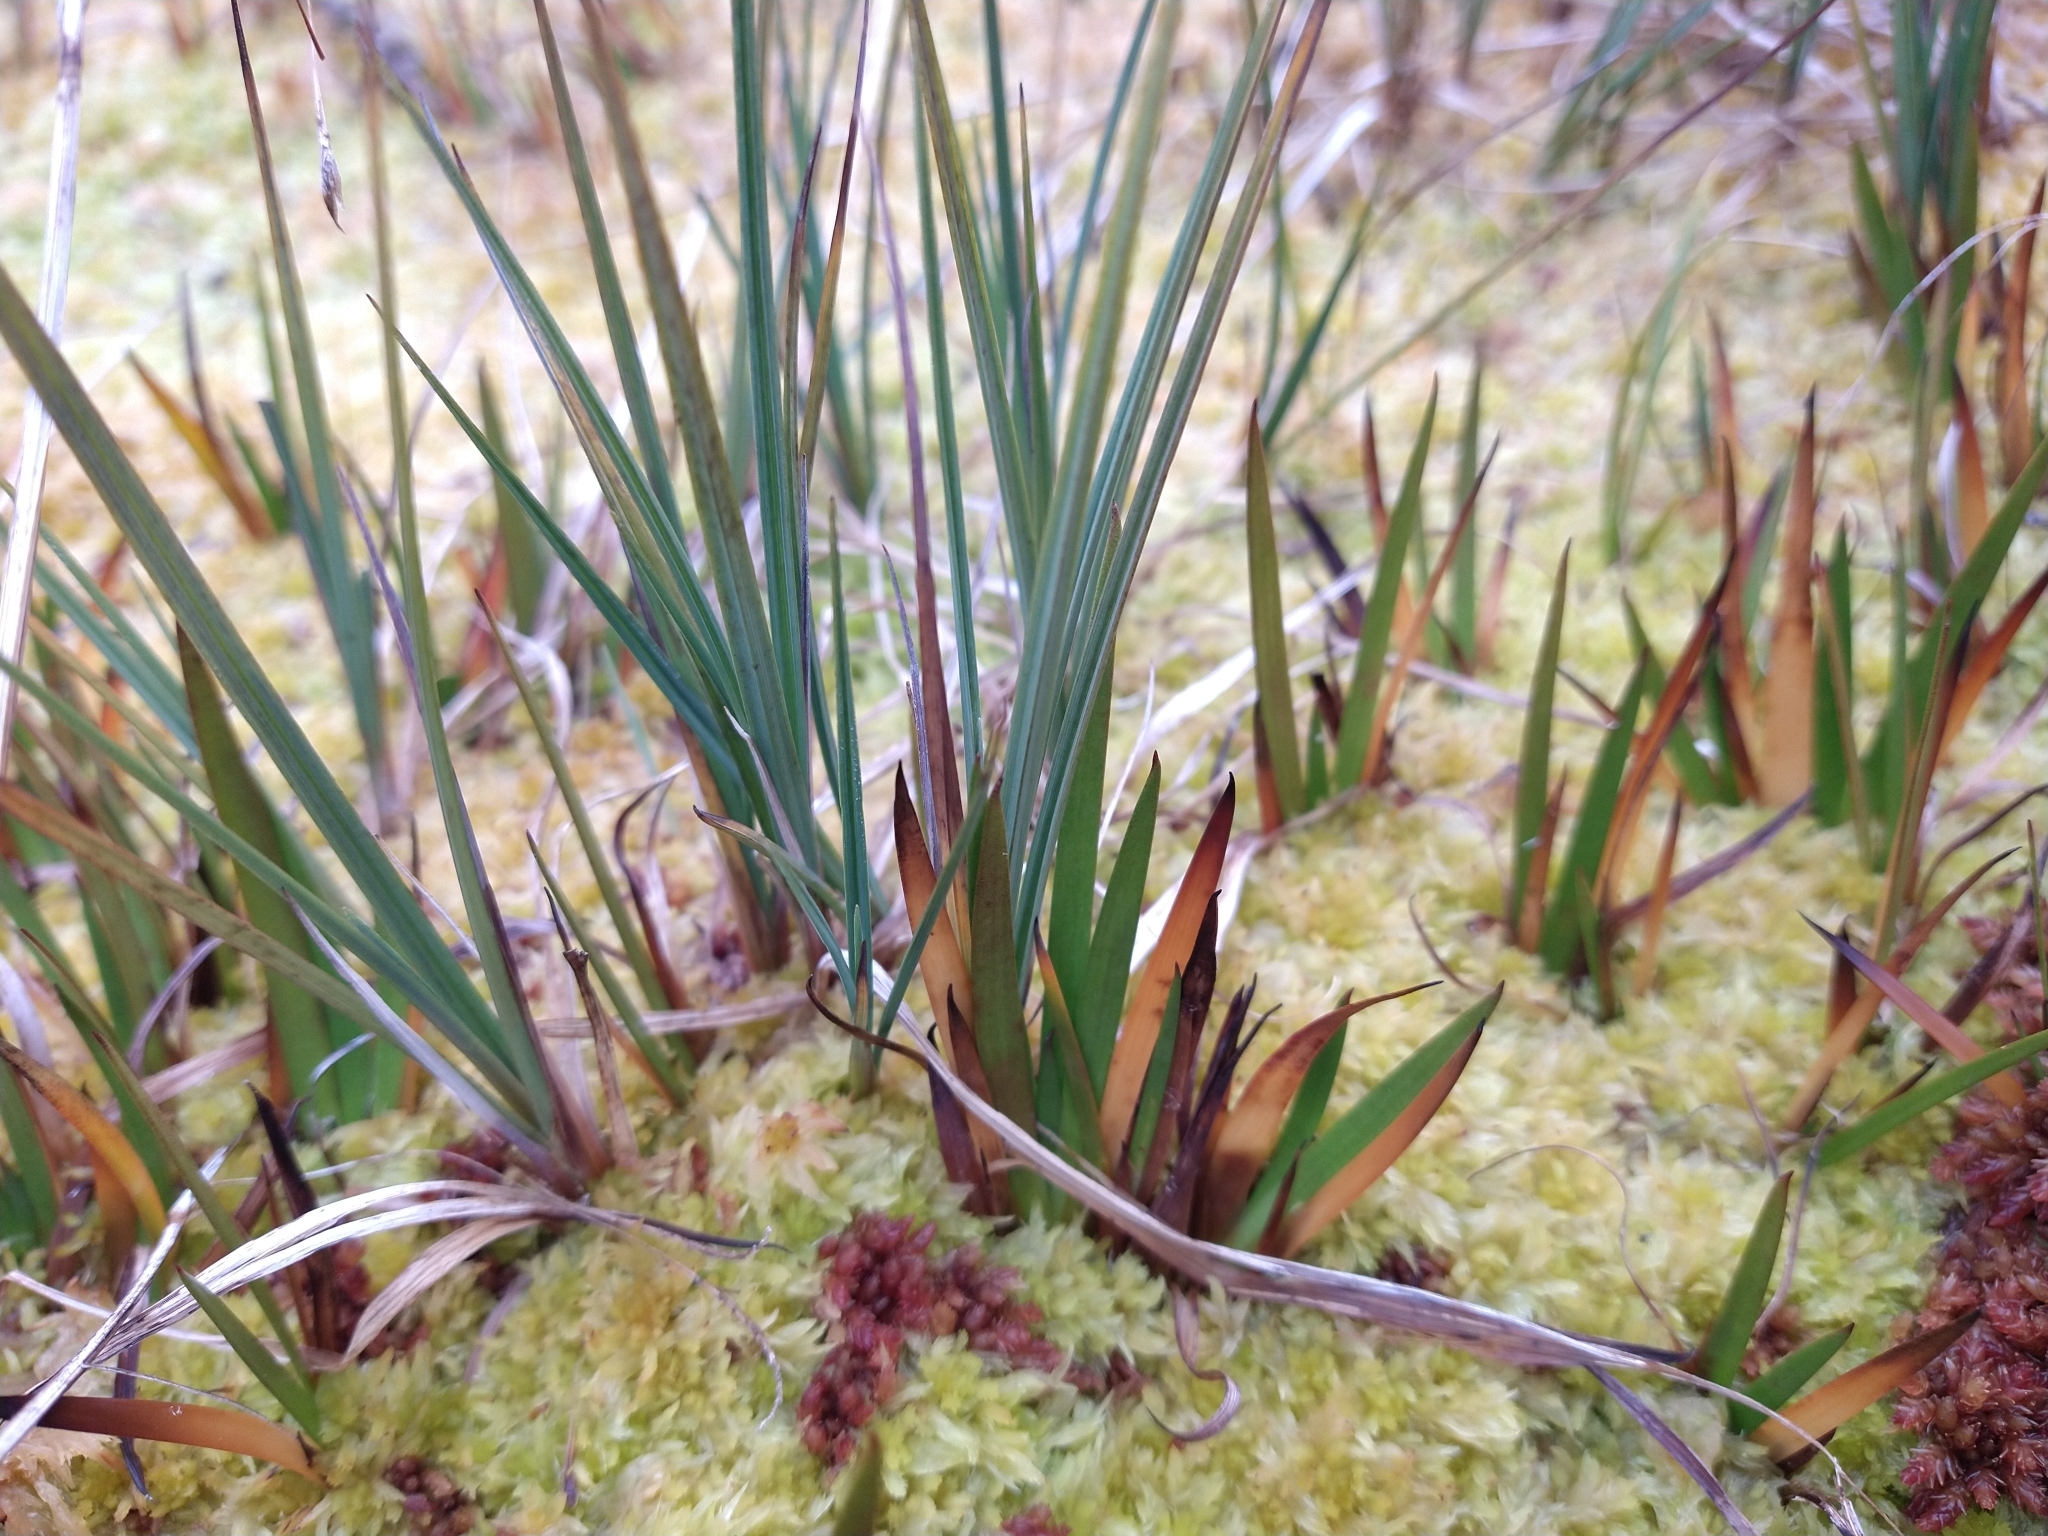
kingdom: Plantae
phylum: Tracheophyta
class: Liliopsida
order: Poales
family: Cyperaceae
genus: Carex
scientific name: Carex magellanica
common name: Bog sedge
